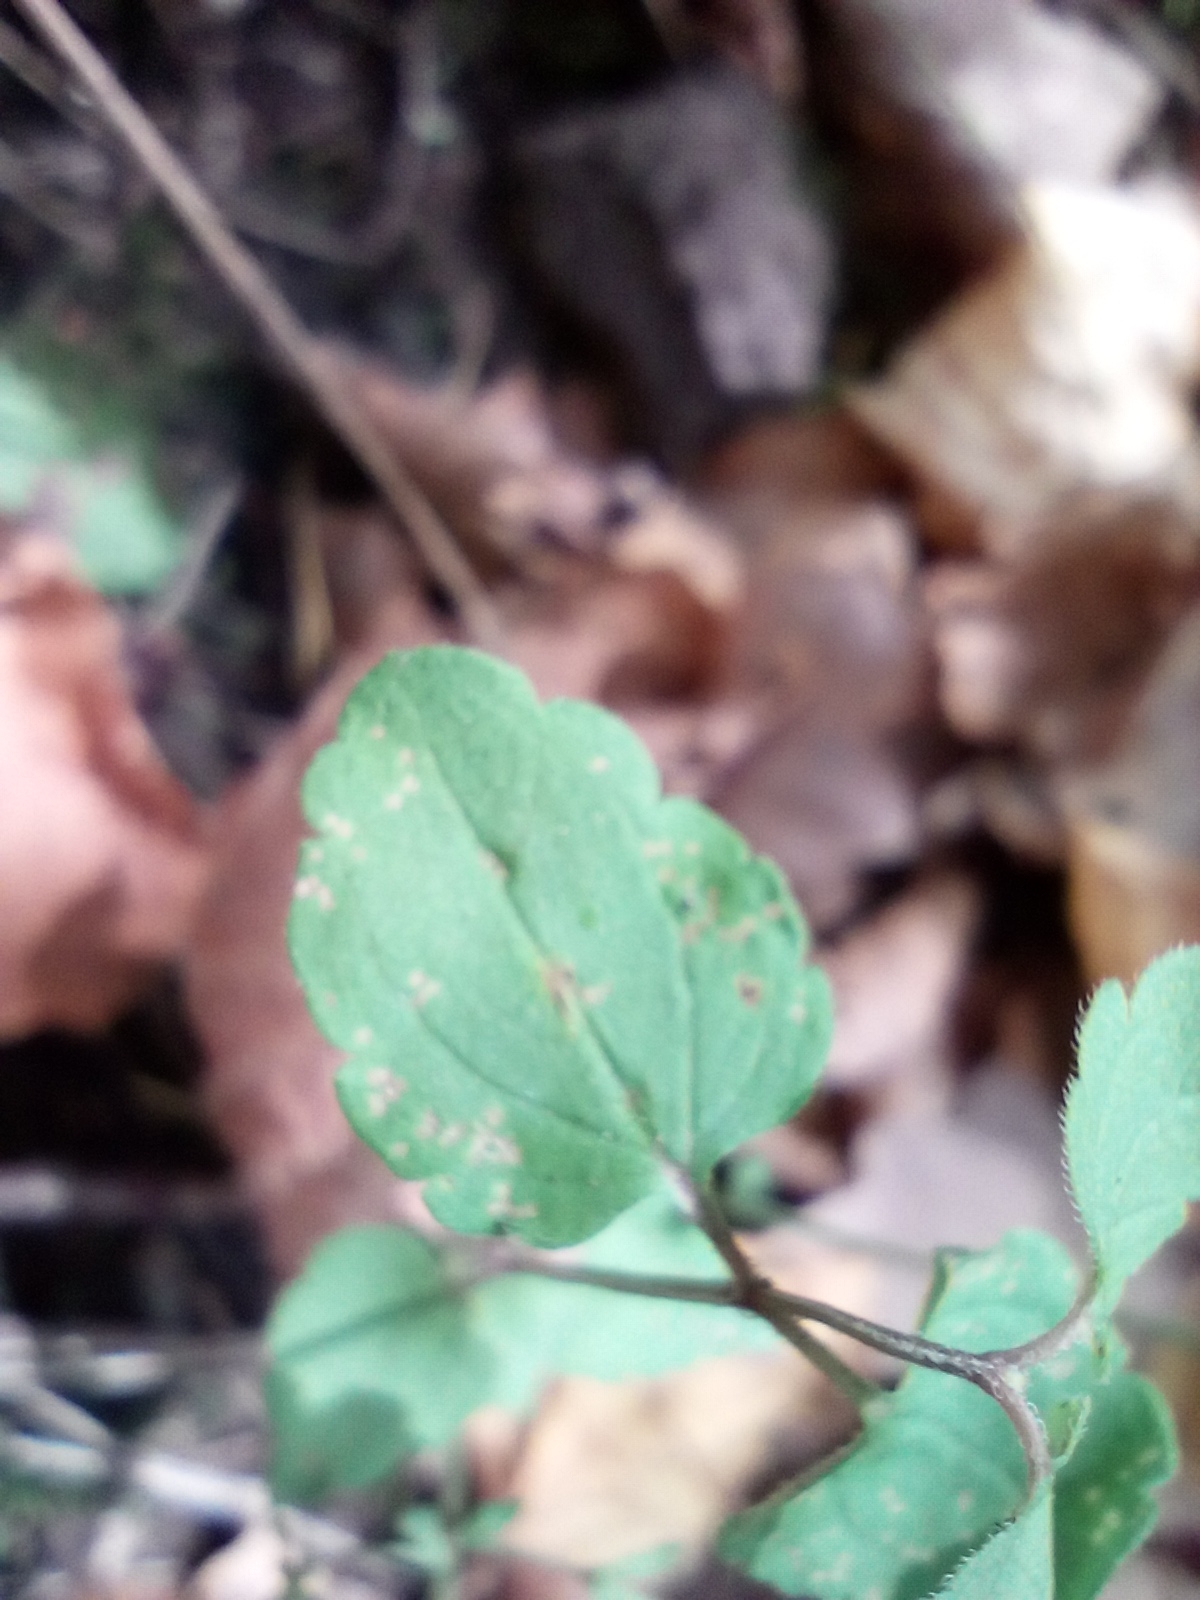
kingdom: Plantae
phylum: Tracheophyta
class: Magnoliopsida
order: Lamiales
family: Plantaginaceae
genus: Veronica
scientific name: Veronica chamaedrys
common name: Germander speedwell
